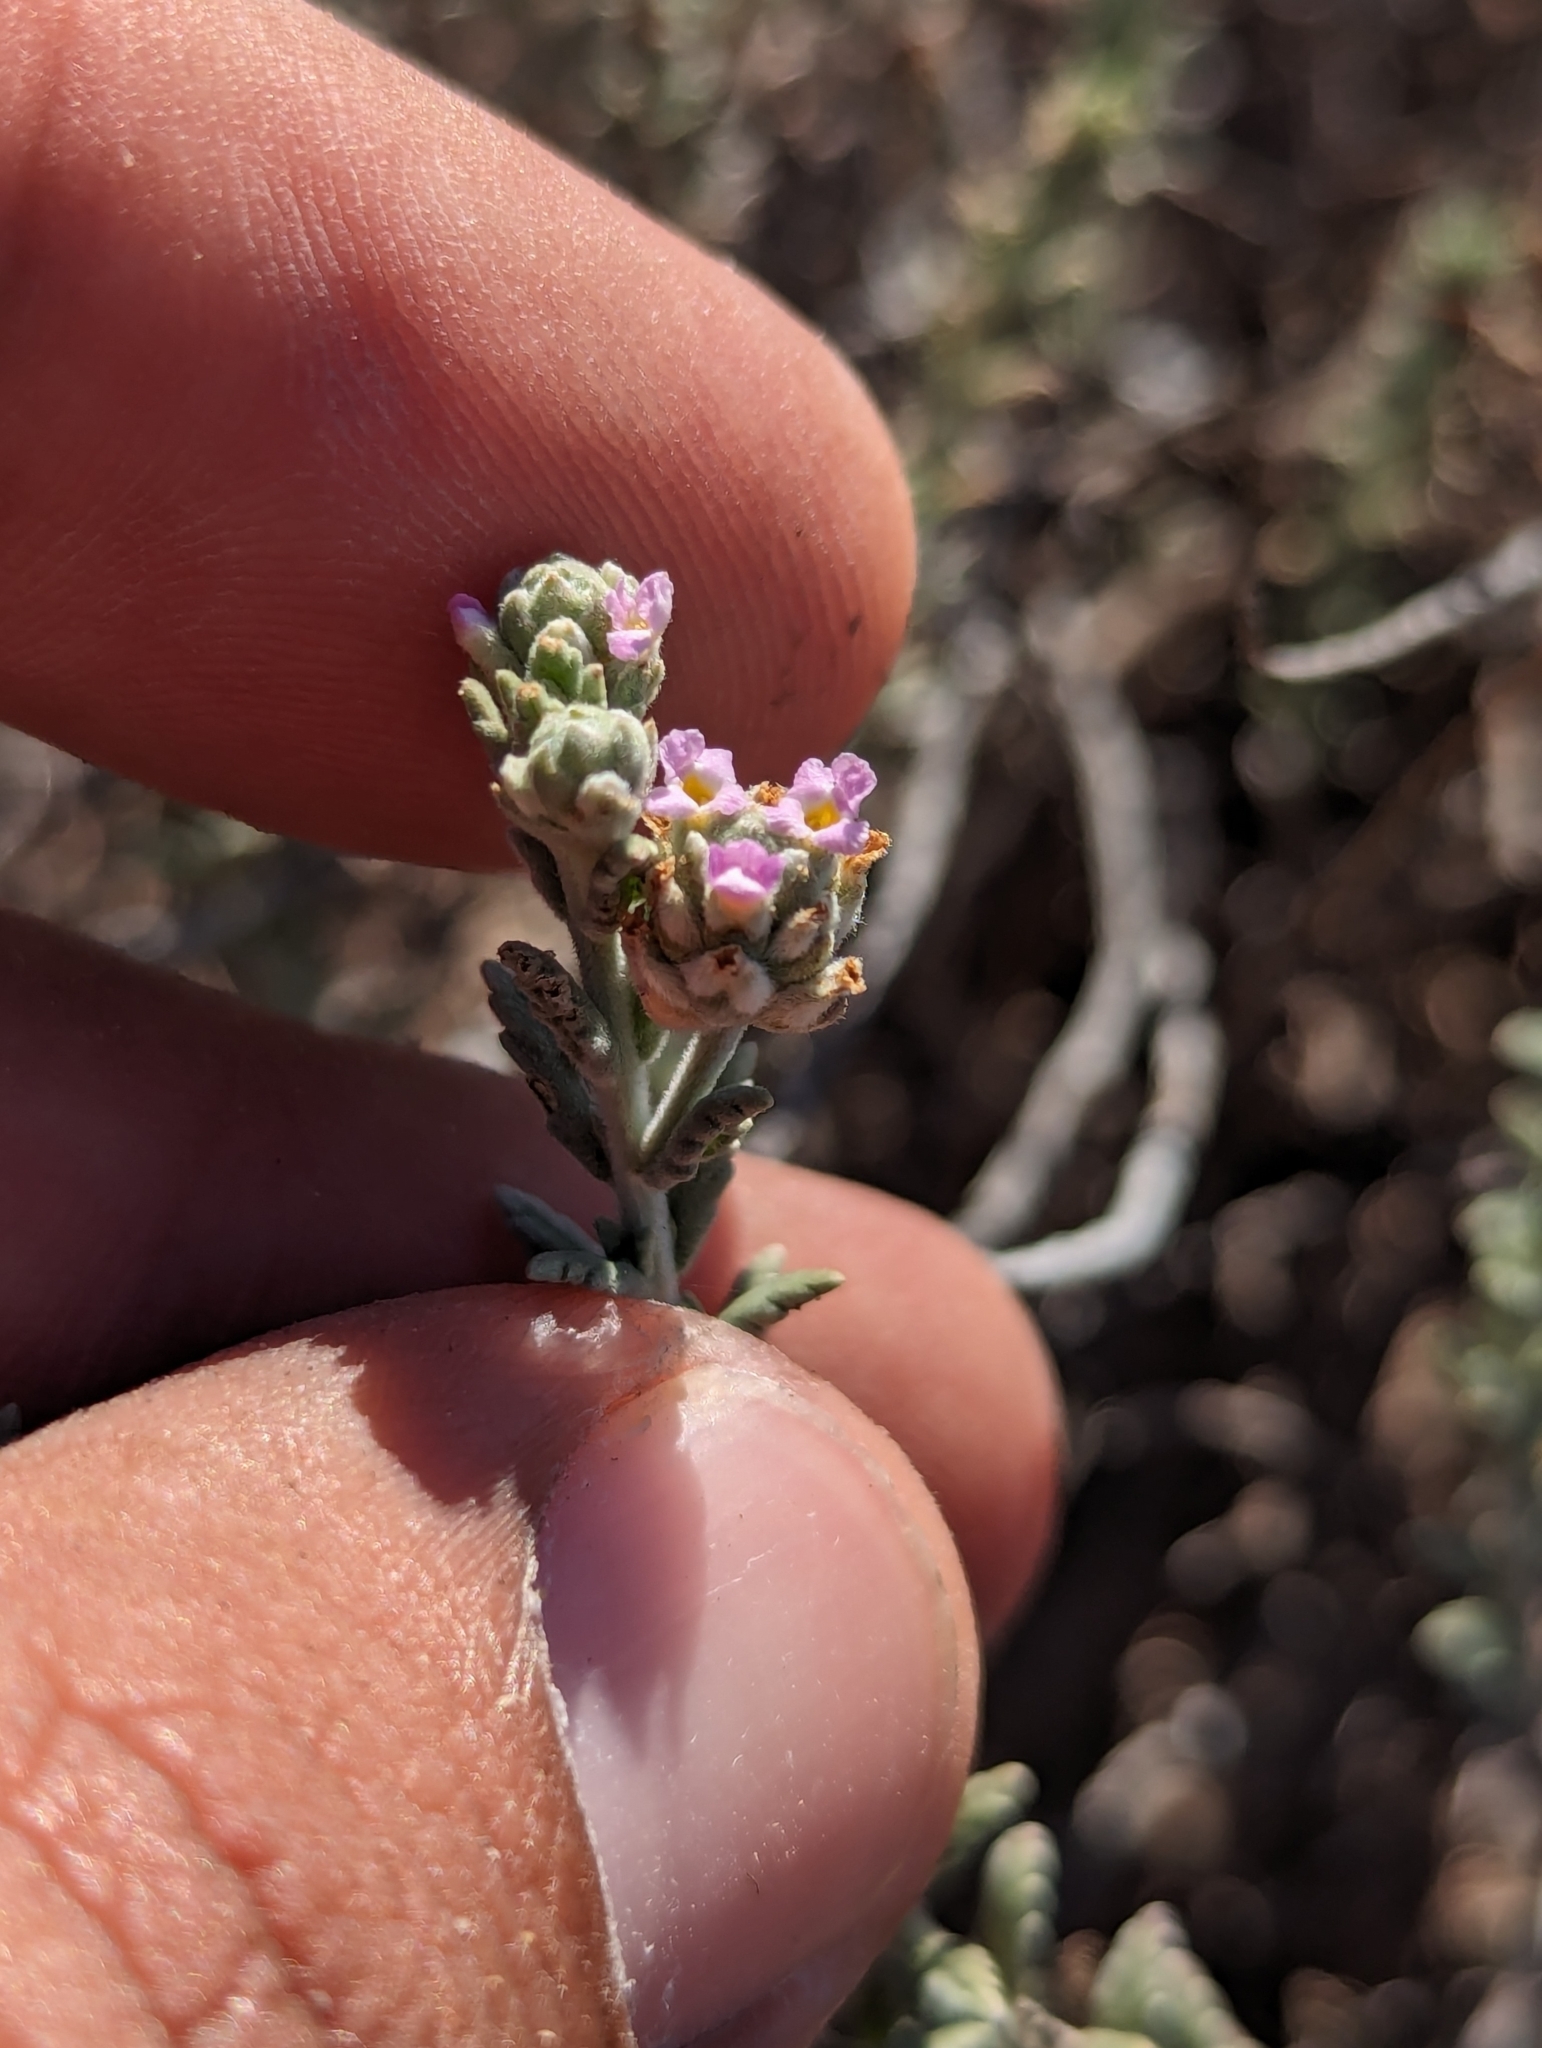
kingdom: Plantae
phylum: Tracheophyta
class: Magnoliopsida
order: Lamiales
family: Verbenaceae
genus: Lippia
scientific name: Lippia fastigiata
